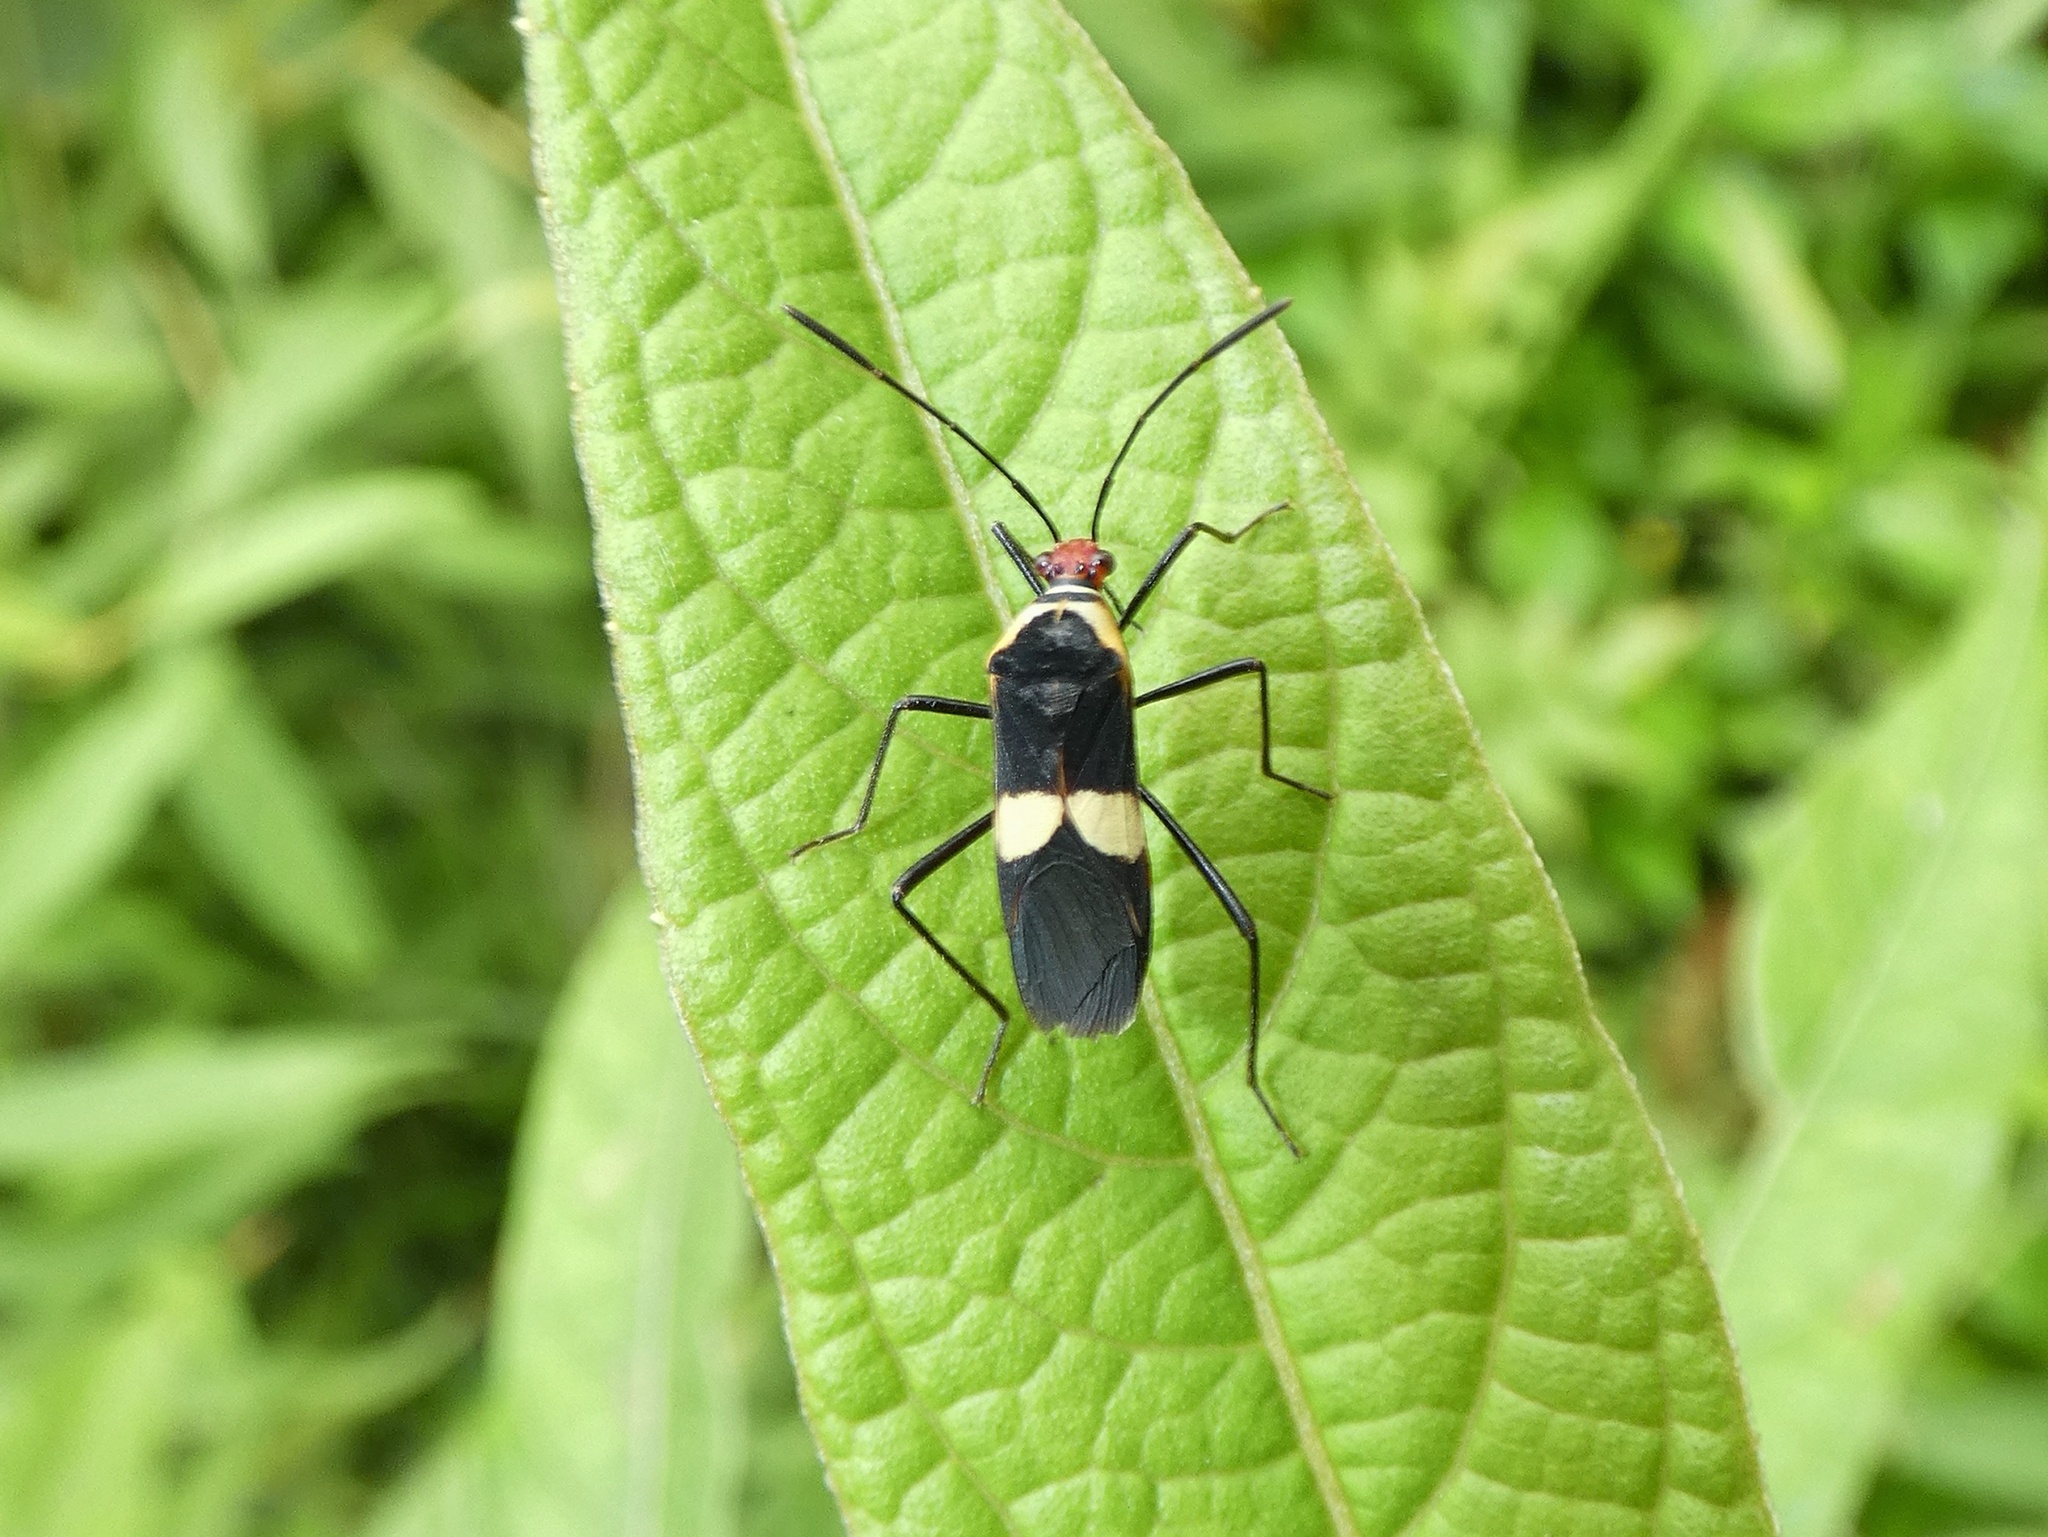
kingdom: Animalia
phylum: Arthropoda
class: Insecta
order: Hemiptera
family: Coreidae
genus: Hypselonotus
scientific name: Hypselonotus interruptus
